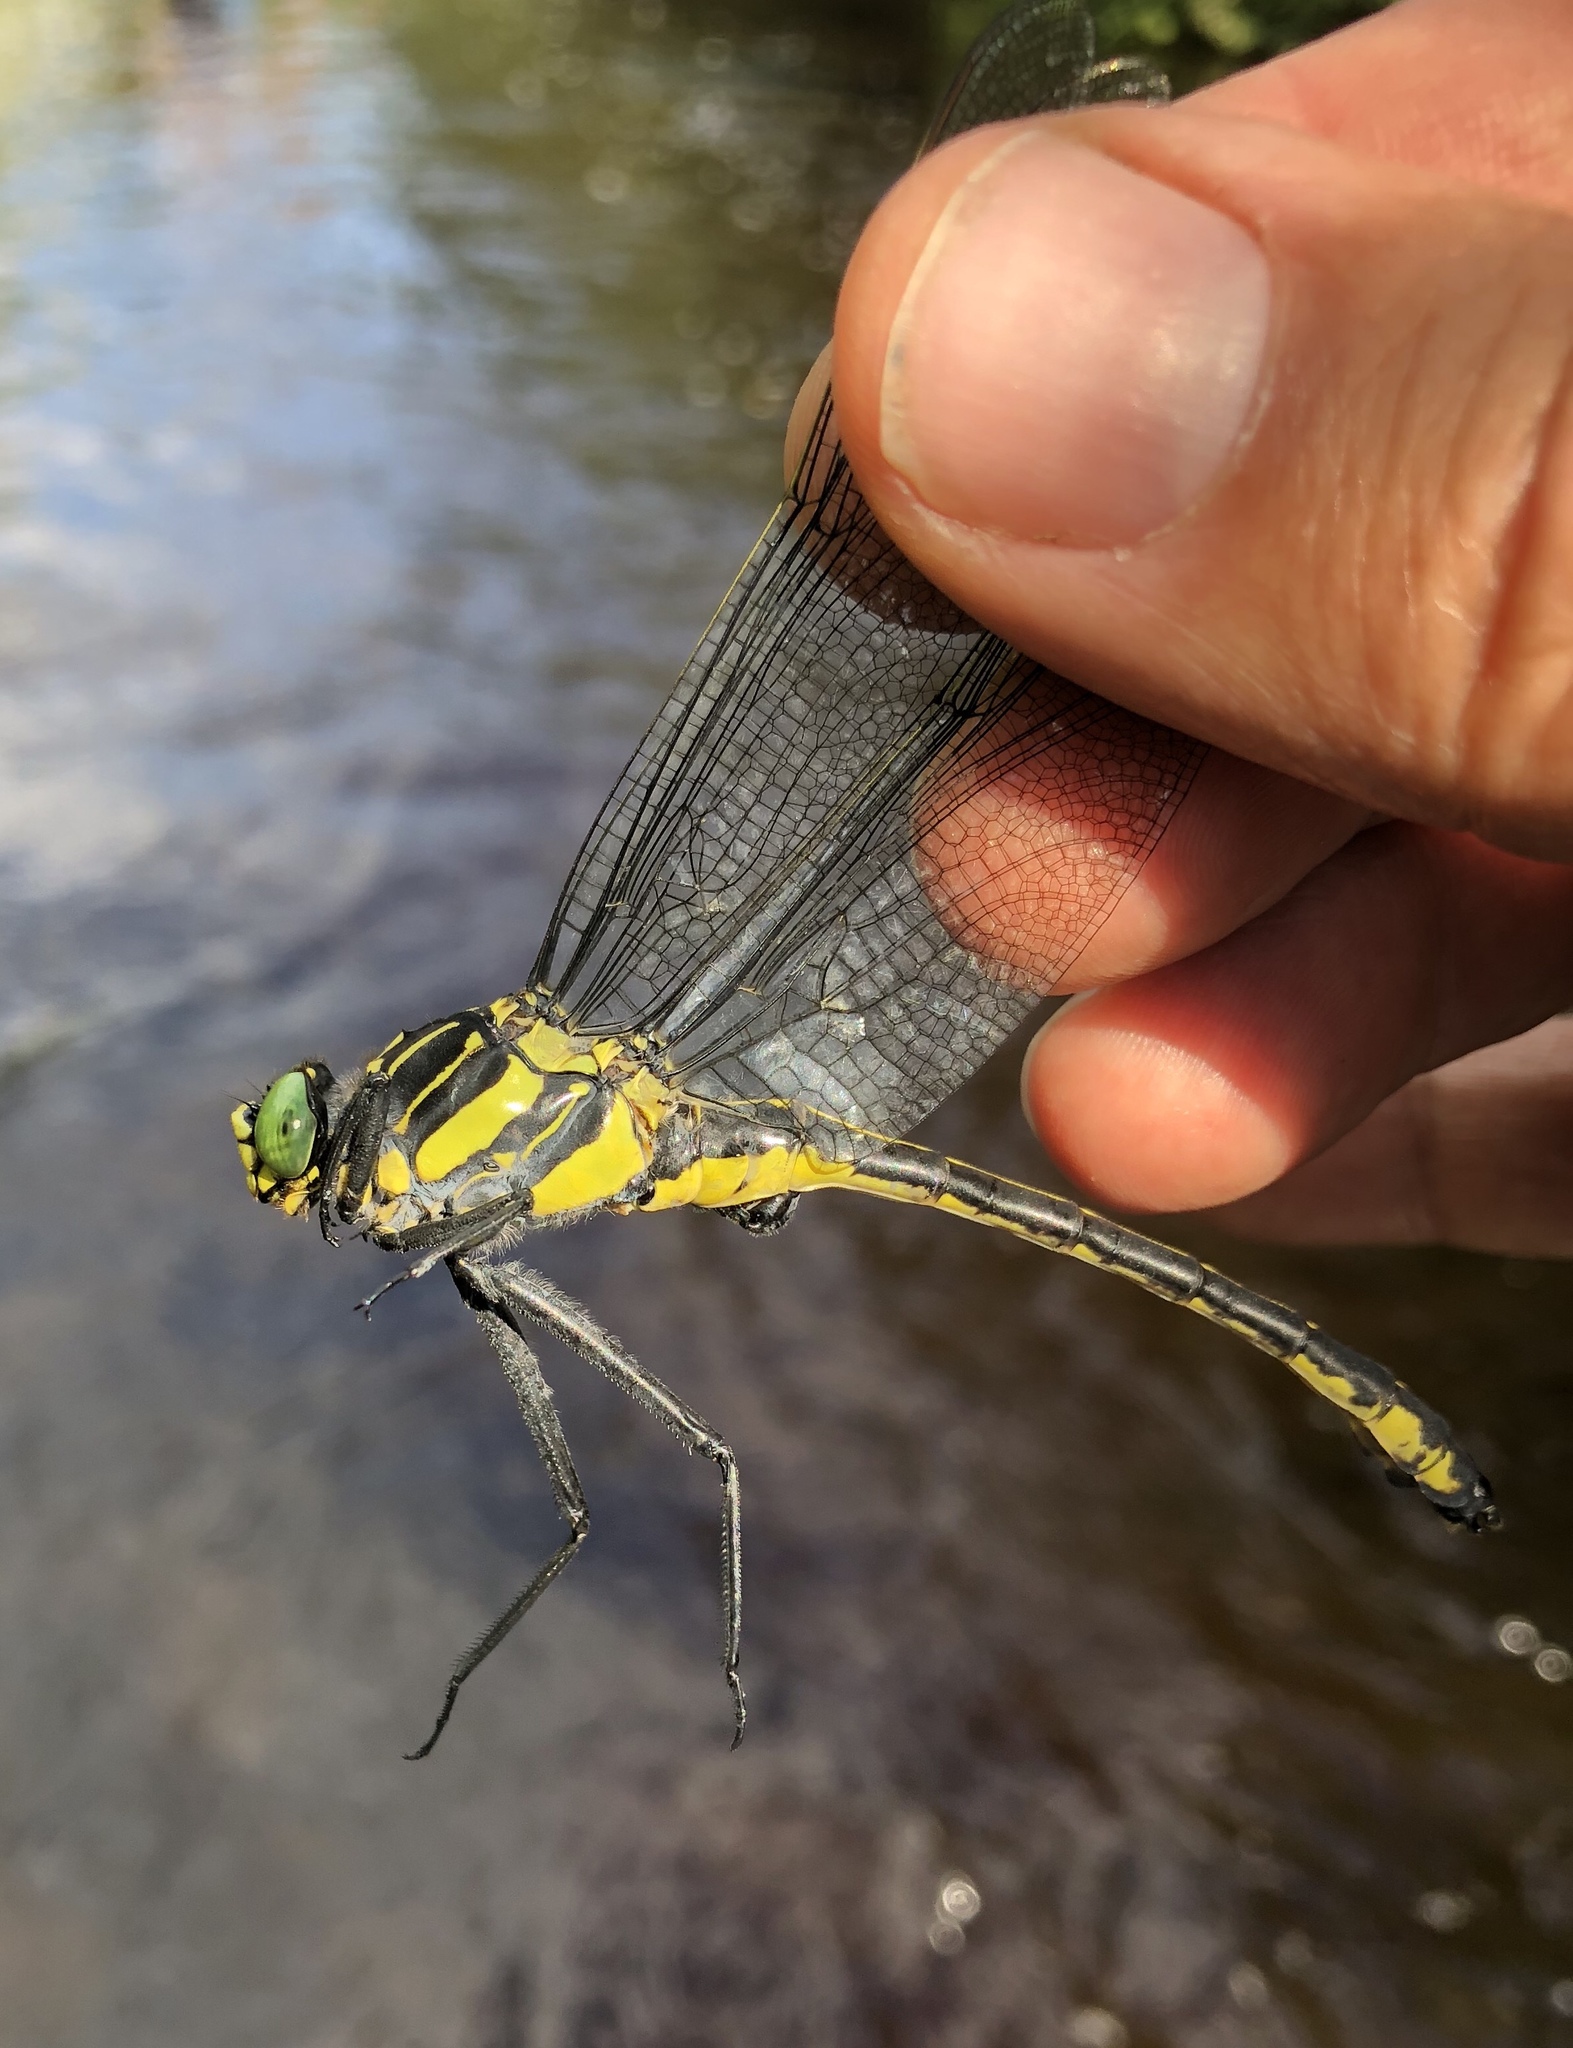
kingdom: Animalia
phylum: Arthropoda
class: Insecta
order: Odonata
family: Gomphidae
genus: Hagenius
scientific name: Hagenius brevistylus
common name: Dragonhunter
